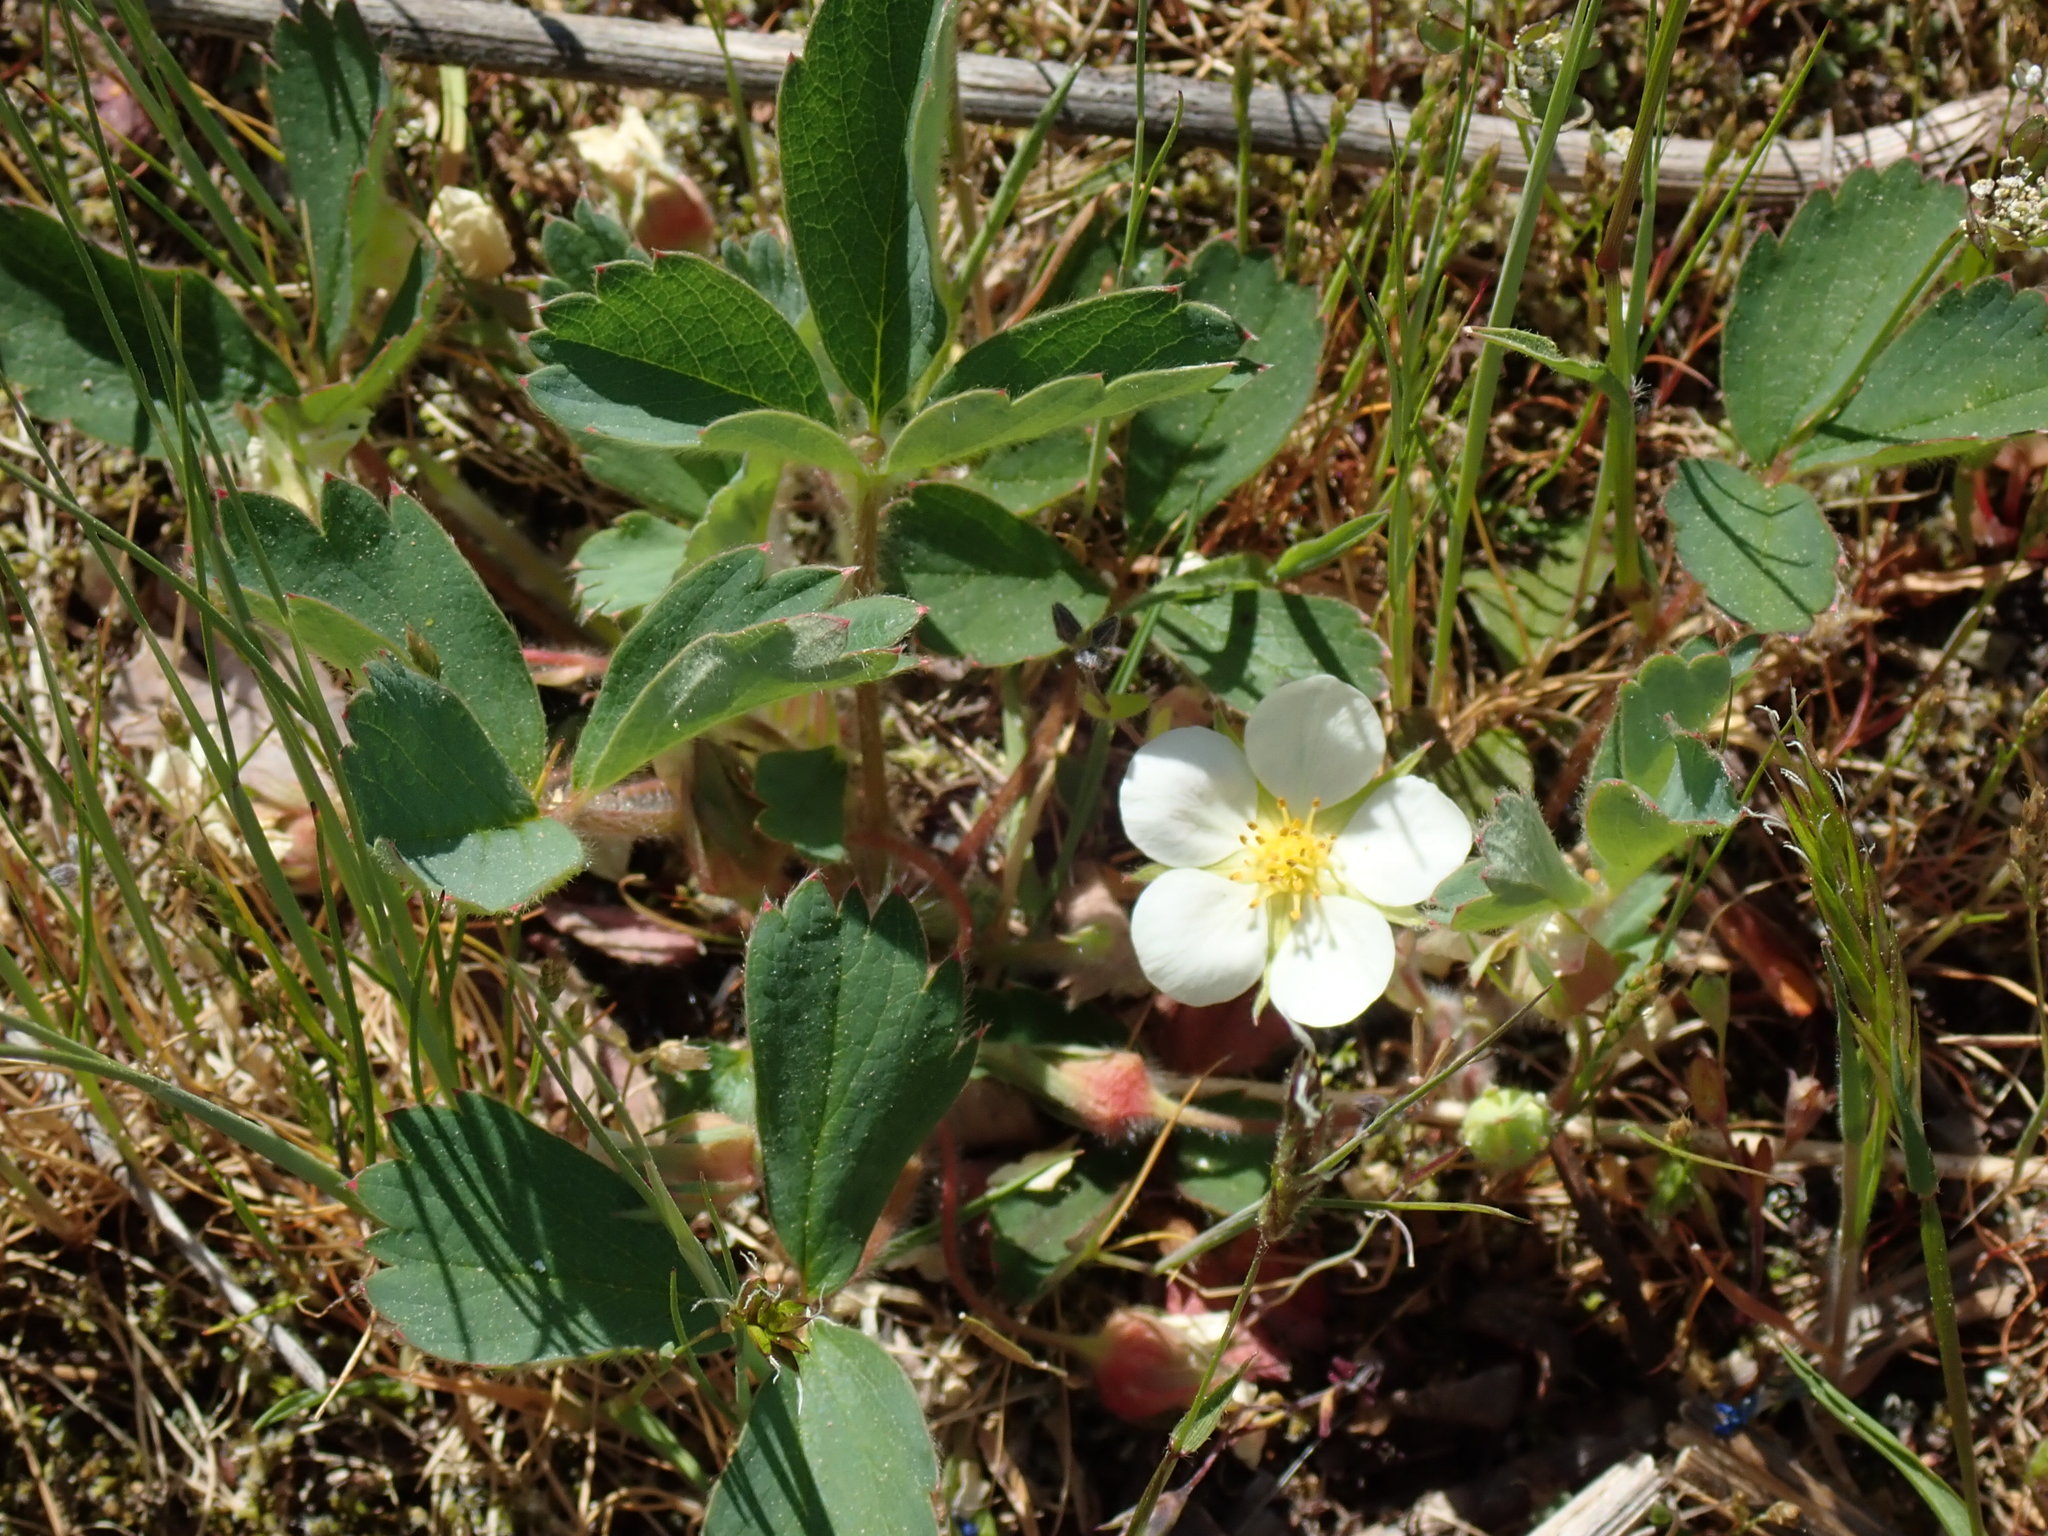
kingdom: Plantae
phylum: Tracheophyta
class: Magnoliopsida
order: Rosales
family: Rosaceae
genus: Fragaria
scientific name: Fragaria virginiana
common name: Thickleaved wild strawberry
